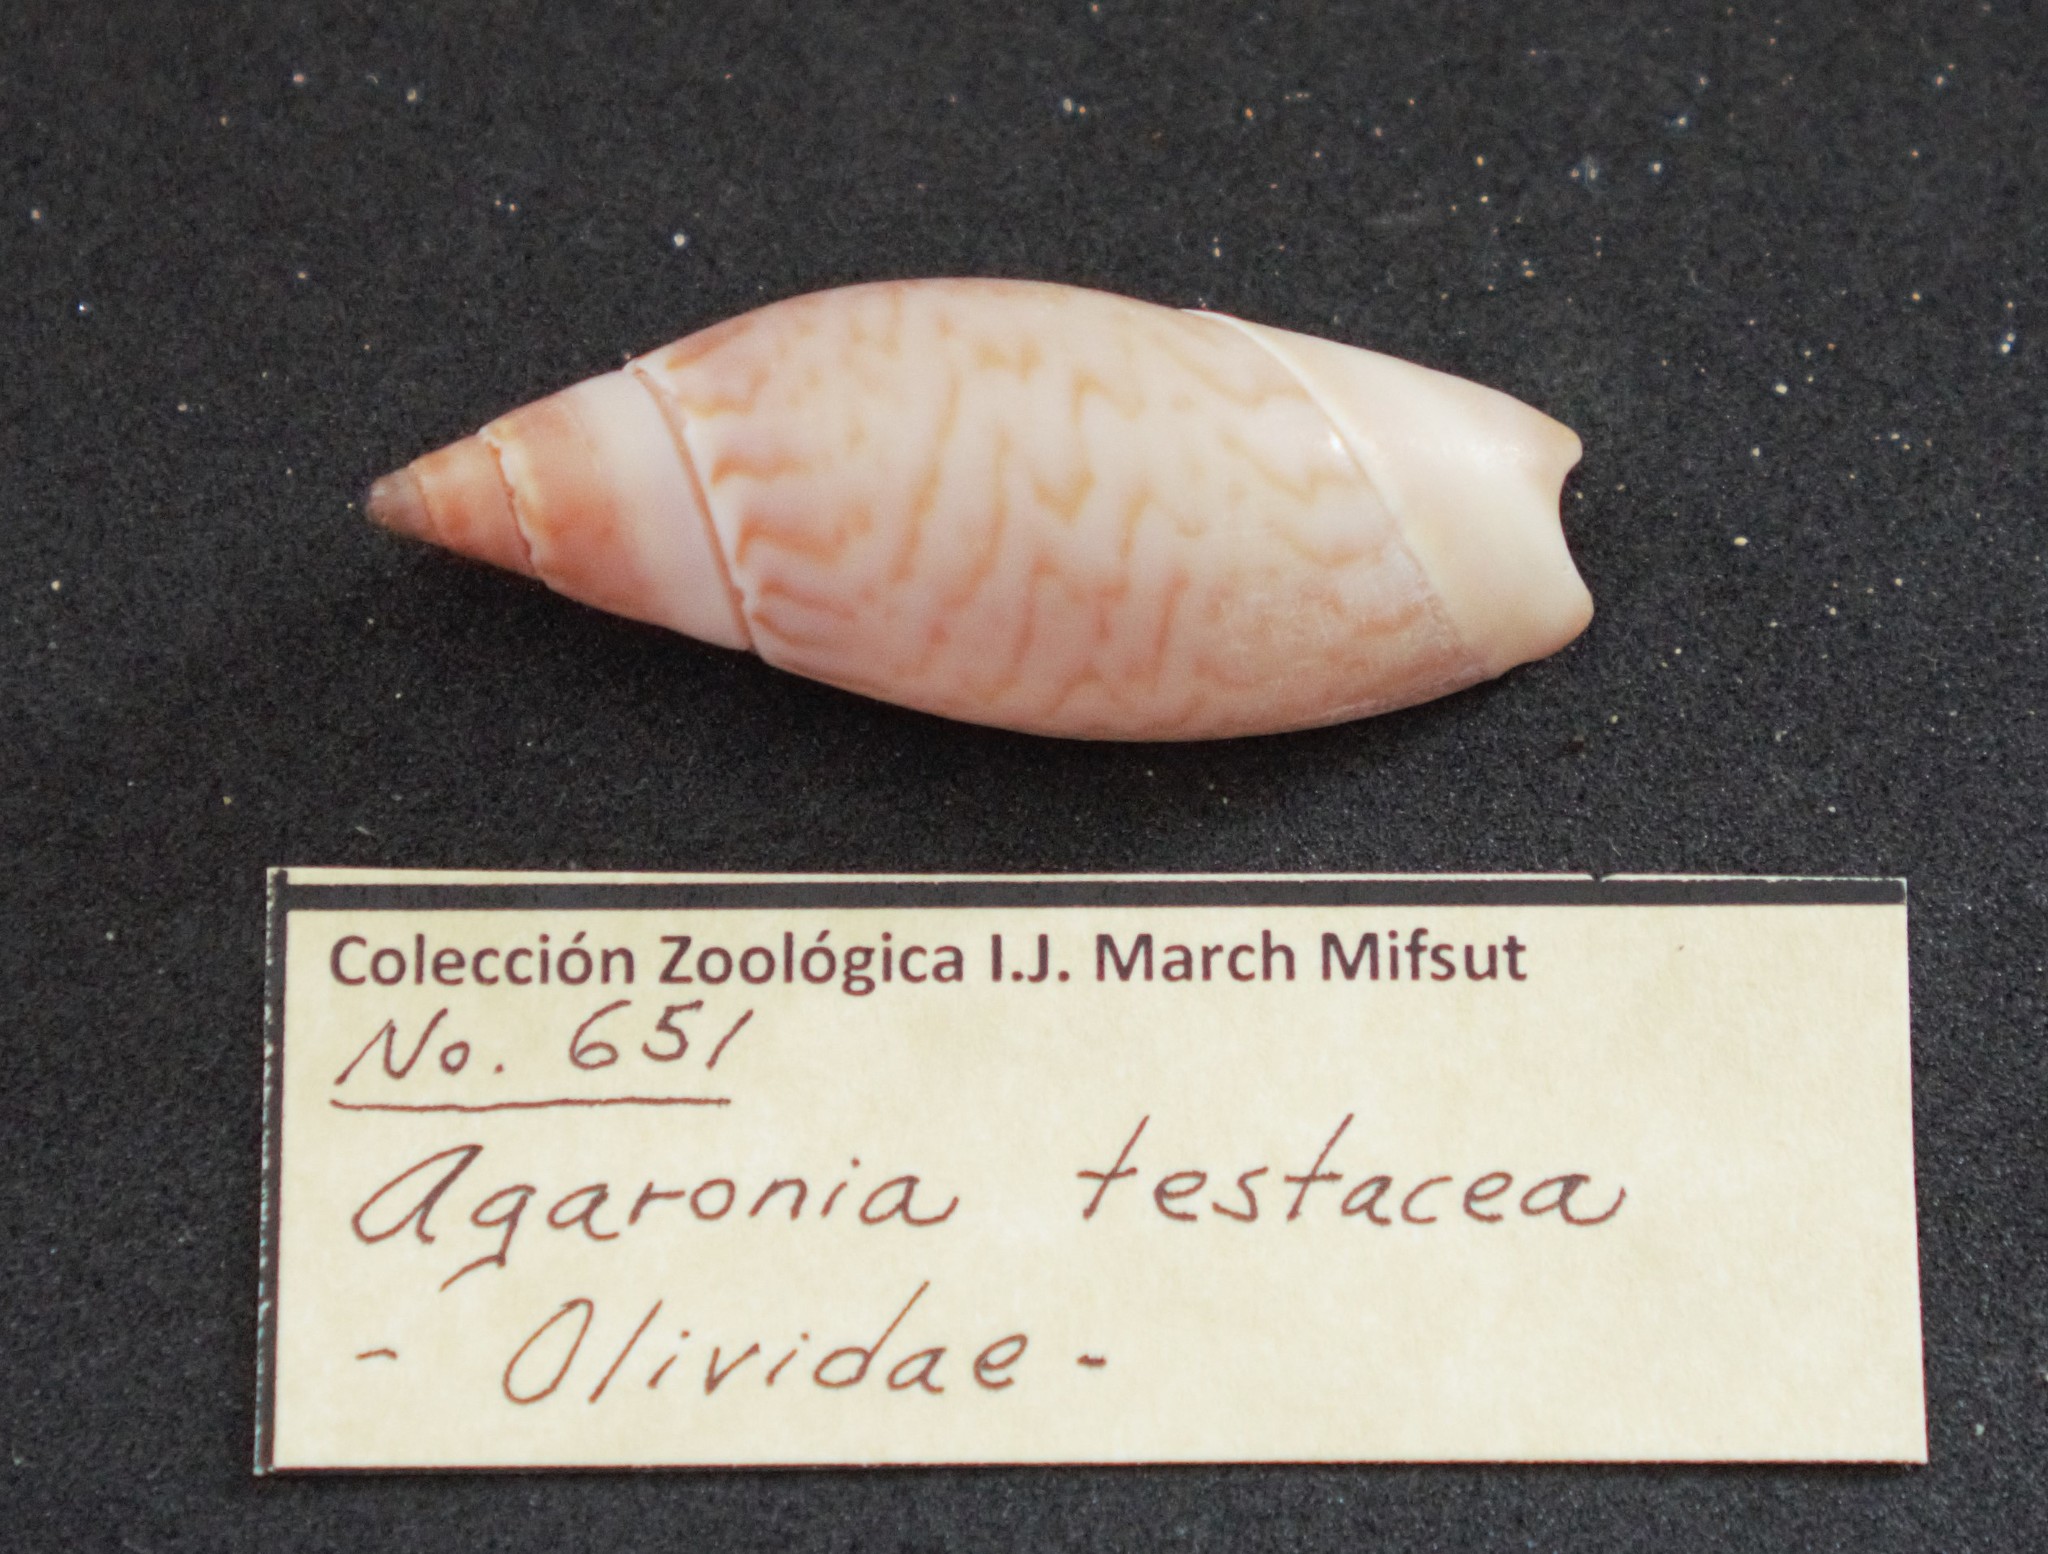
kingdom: Animalia
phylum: Mollusca
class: Gastropoda
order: Neogastropoda
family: Olividae
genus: Agaronia
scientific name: Agaronia testacea
